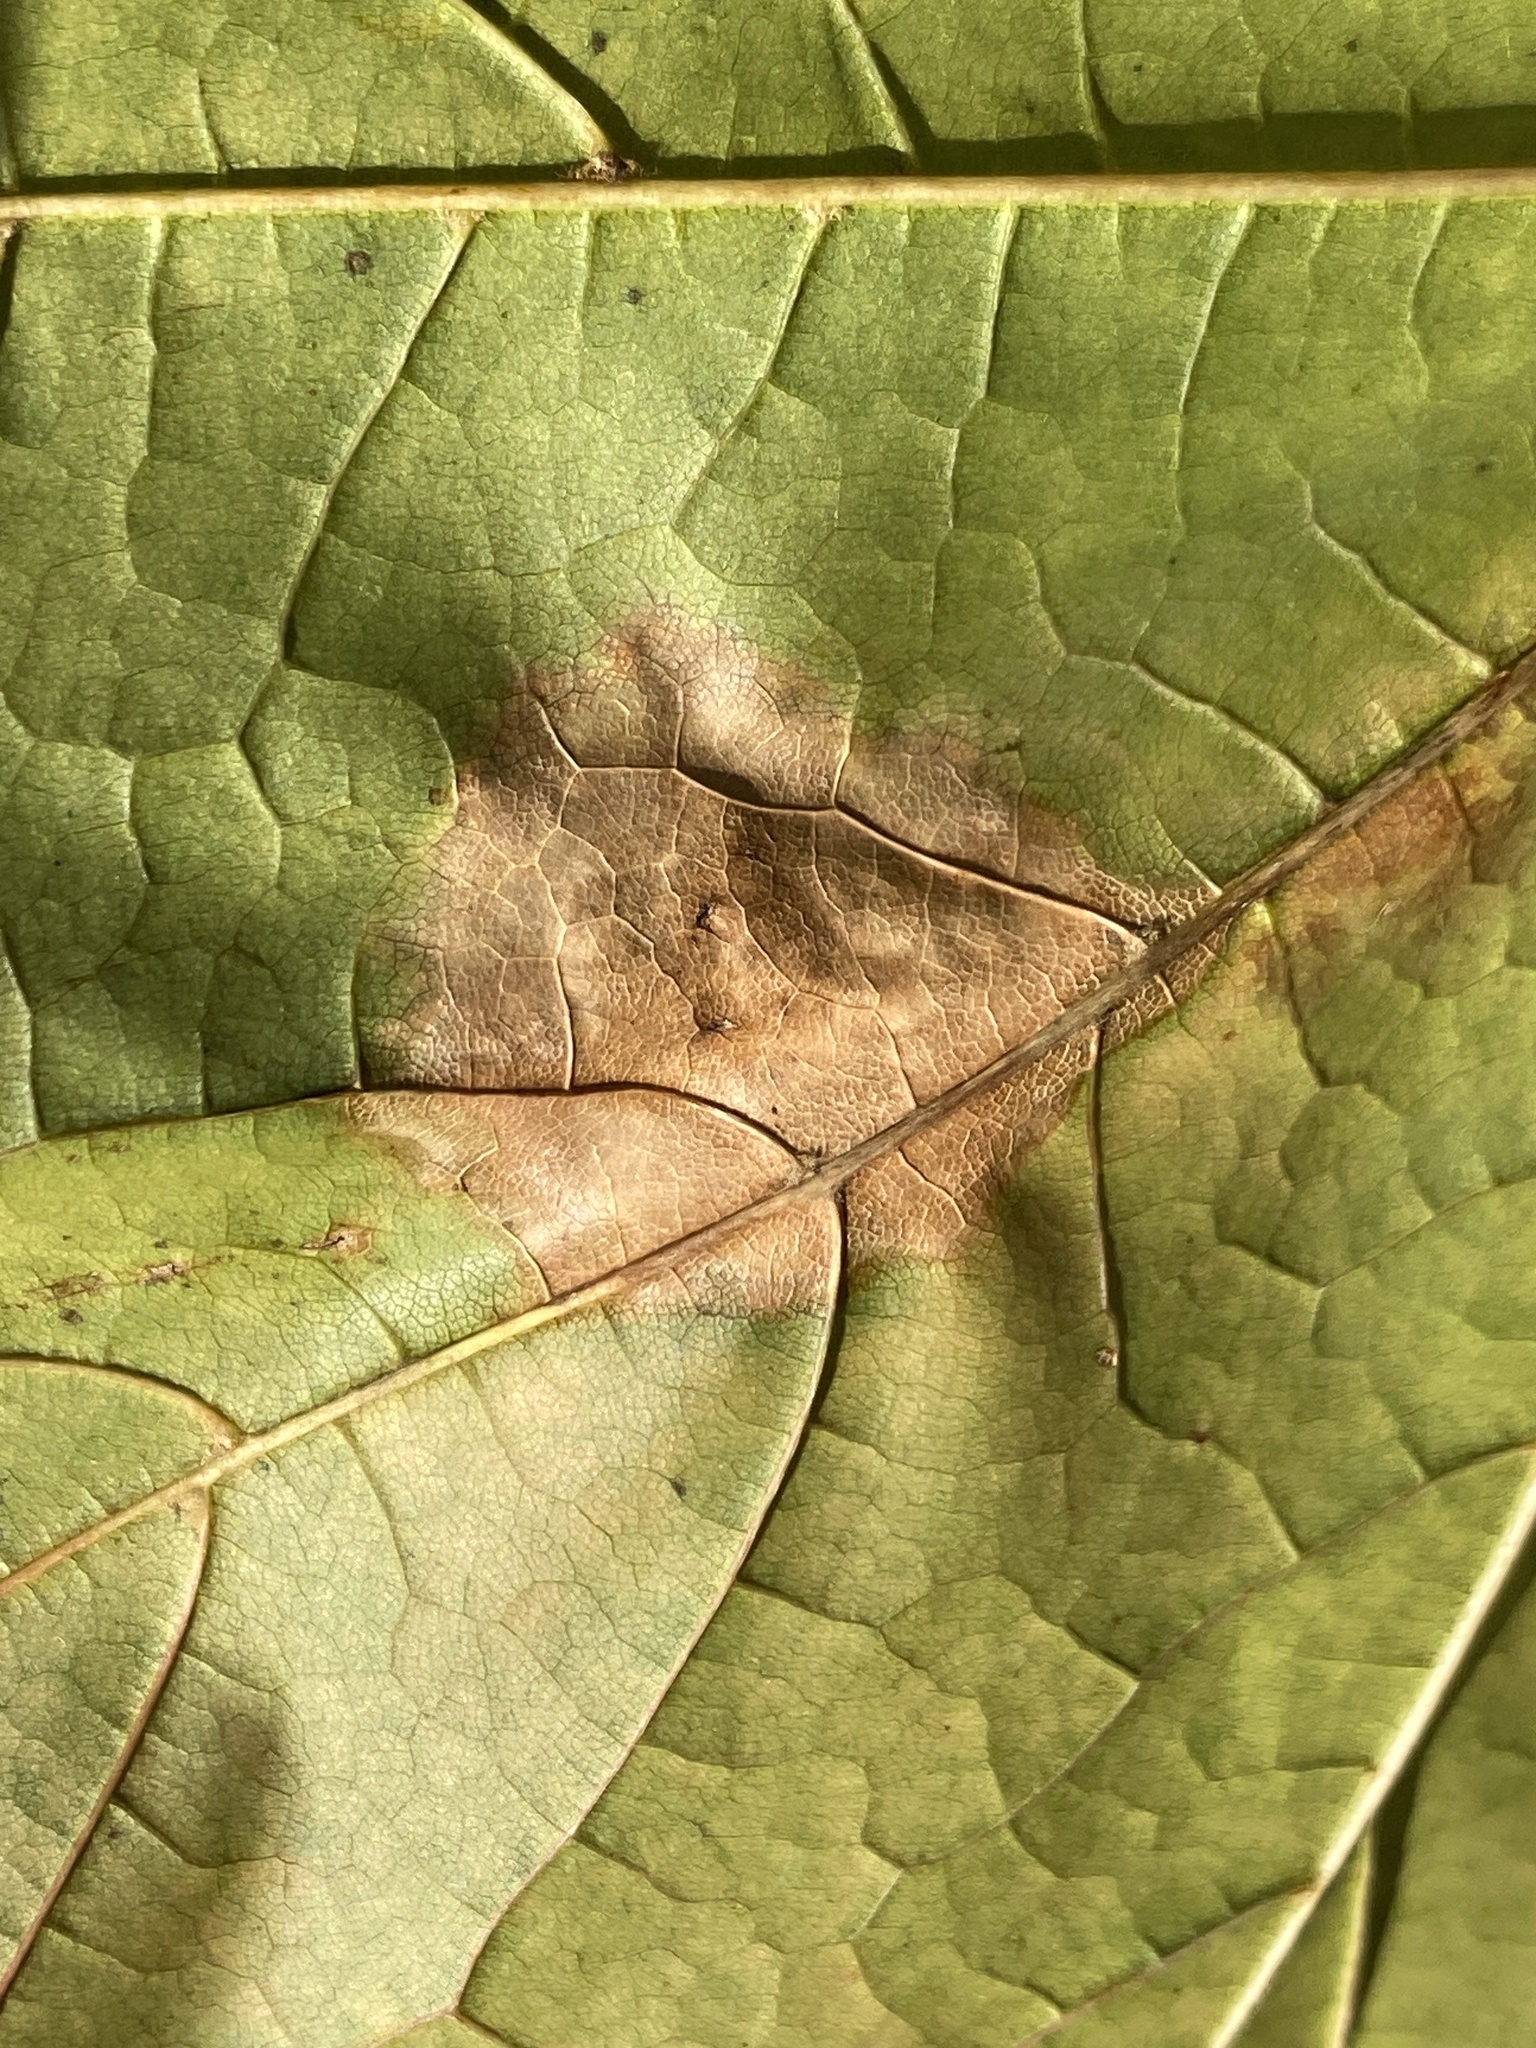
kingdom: Fungi
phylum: Ascomycota
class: Leotiomycetes
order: Rhytismatales
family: Rhytismataceae
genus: Rhytisma
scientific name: Rhytisma acerinum
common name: European tar spot
